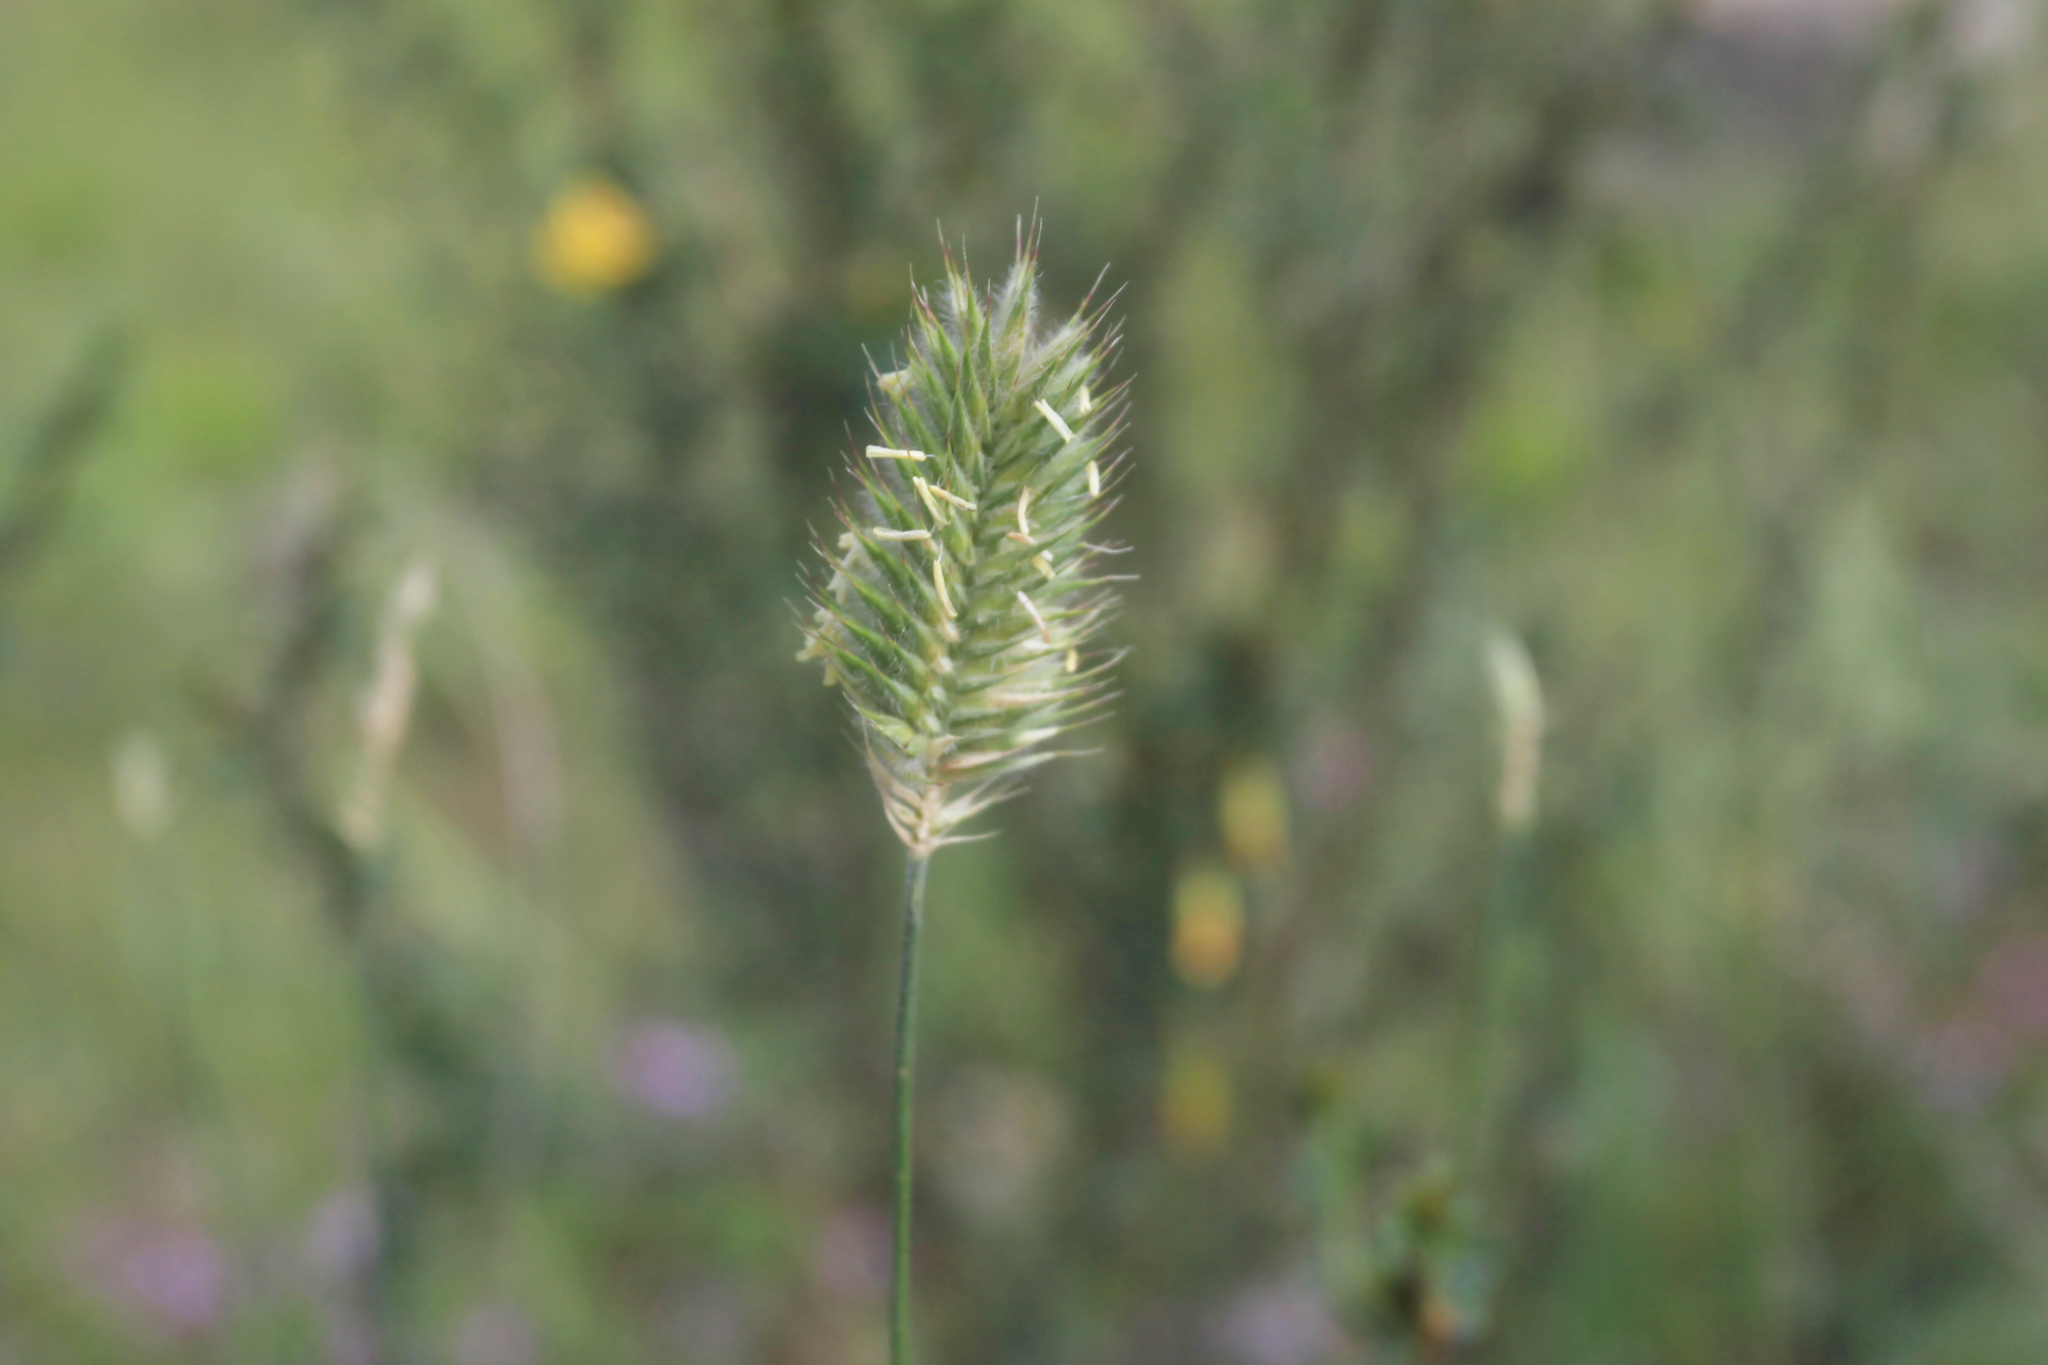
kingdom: Plantae
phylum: Tracheophyta
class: Liliopsida
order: Poales
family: Poaceae
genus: Agropyron
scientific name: Agropyron cristatum
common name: Crested wheatgrass
